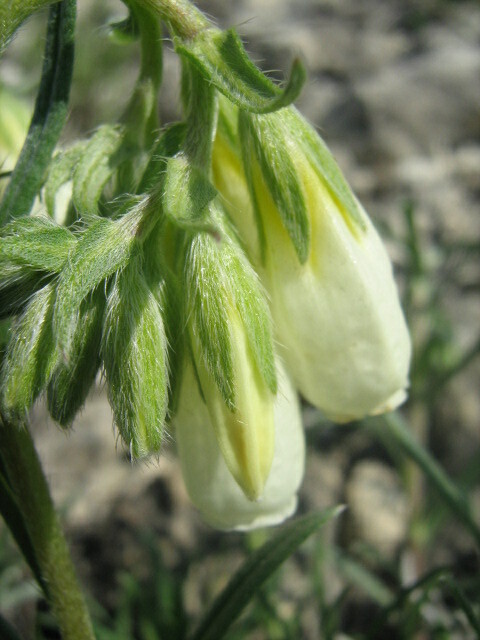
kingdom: Plantae
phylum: Tracheophyta
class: Magnoliopsida
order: Boraginales
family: Boraginaceae
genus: Onosma
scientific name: Onosma simplicissima
